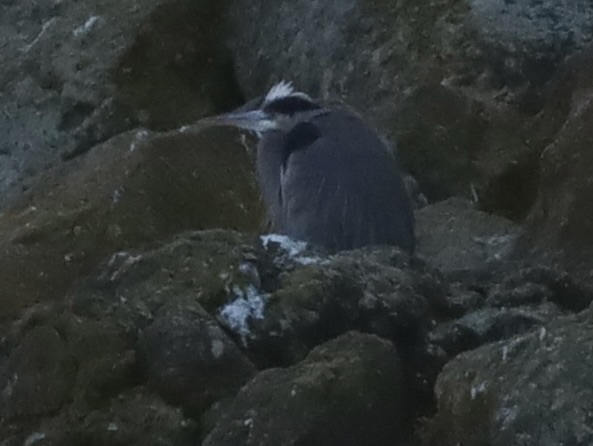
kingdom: Animalia
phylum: Chordata
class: Aves
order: Pelecaniformes
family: Ardeidae
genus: Ardea
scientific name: Ardea herodias
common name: Great blue heron
